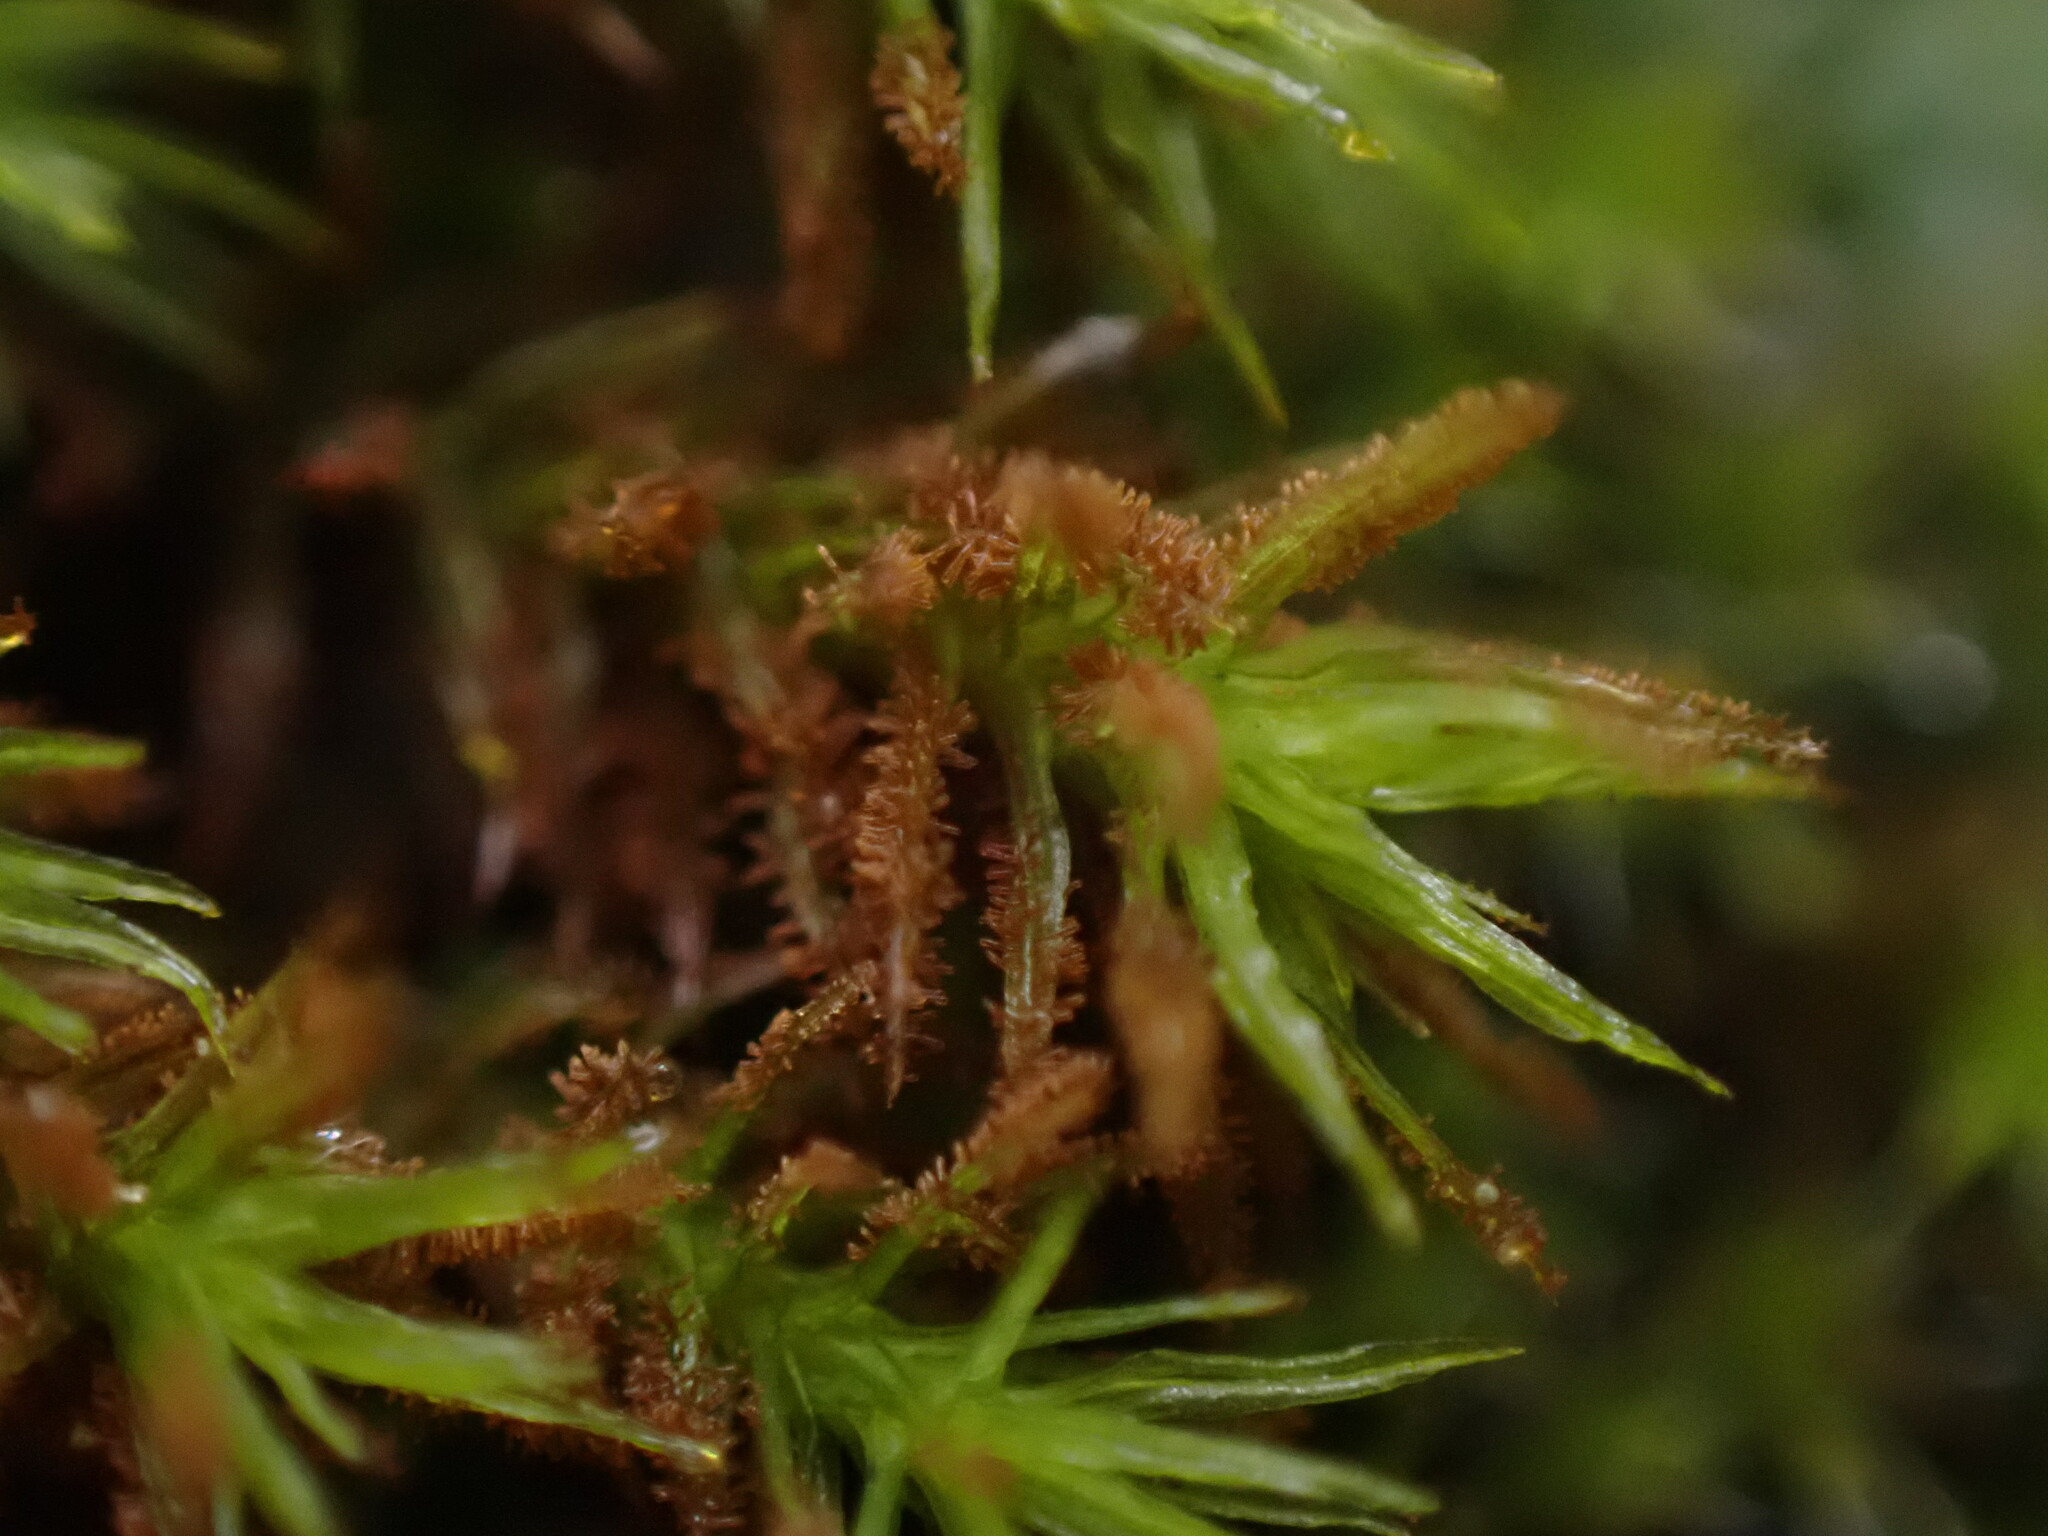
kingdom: Plantae
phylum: Bryophyta
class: Bryopsida
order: Orthotrichales
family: Orthotrichaceae
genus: Pulvigera
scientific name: Pulvigera lyellii
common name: Lyell's bristle-moss
